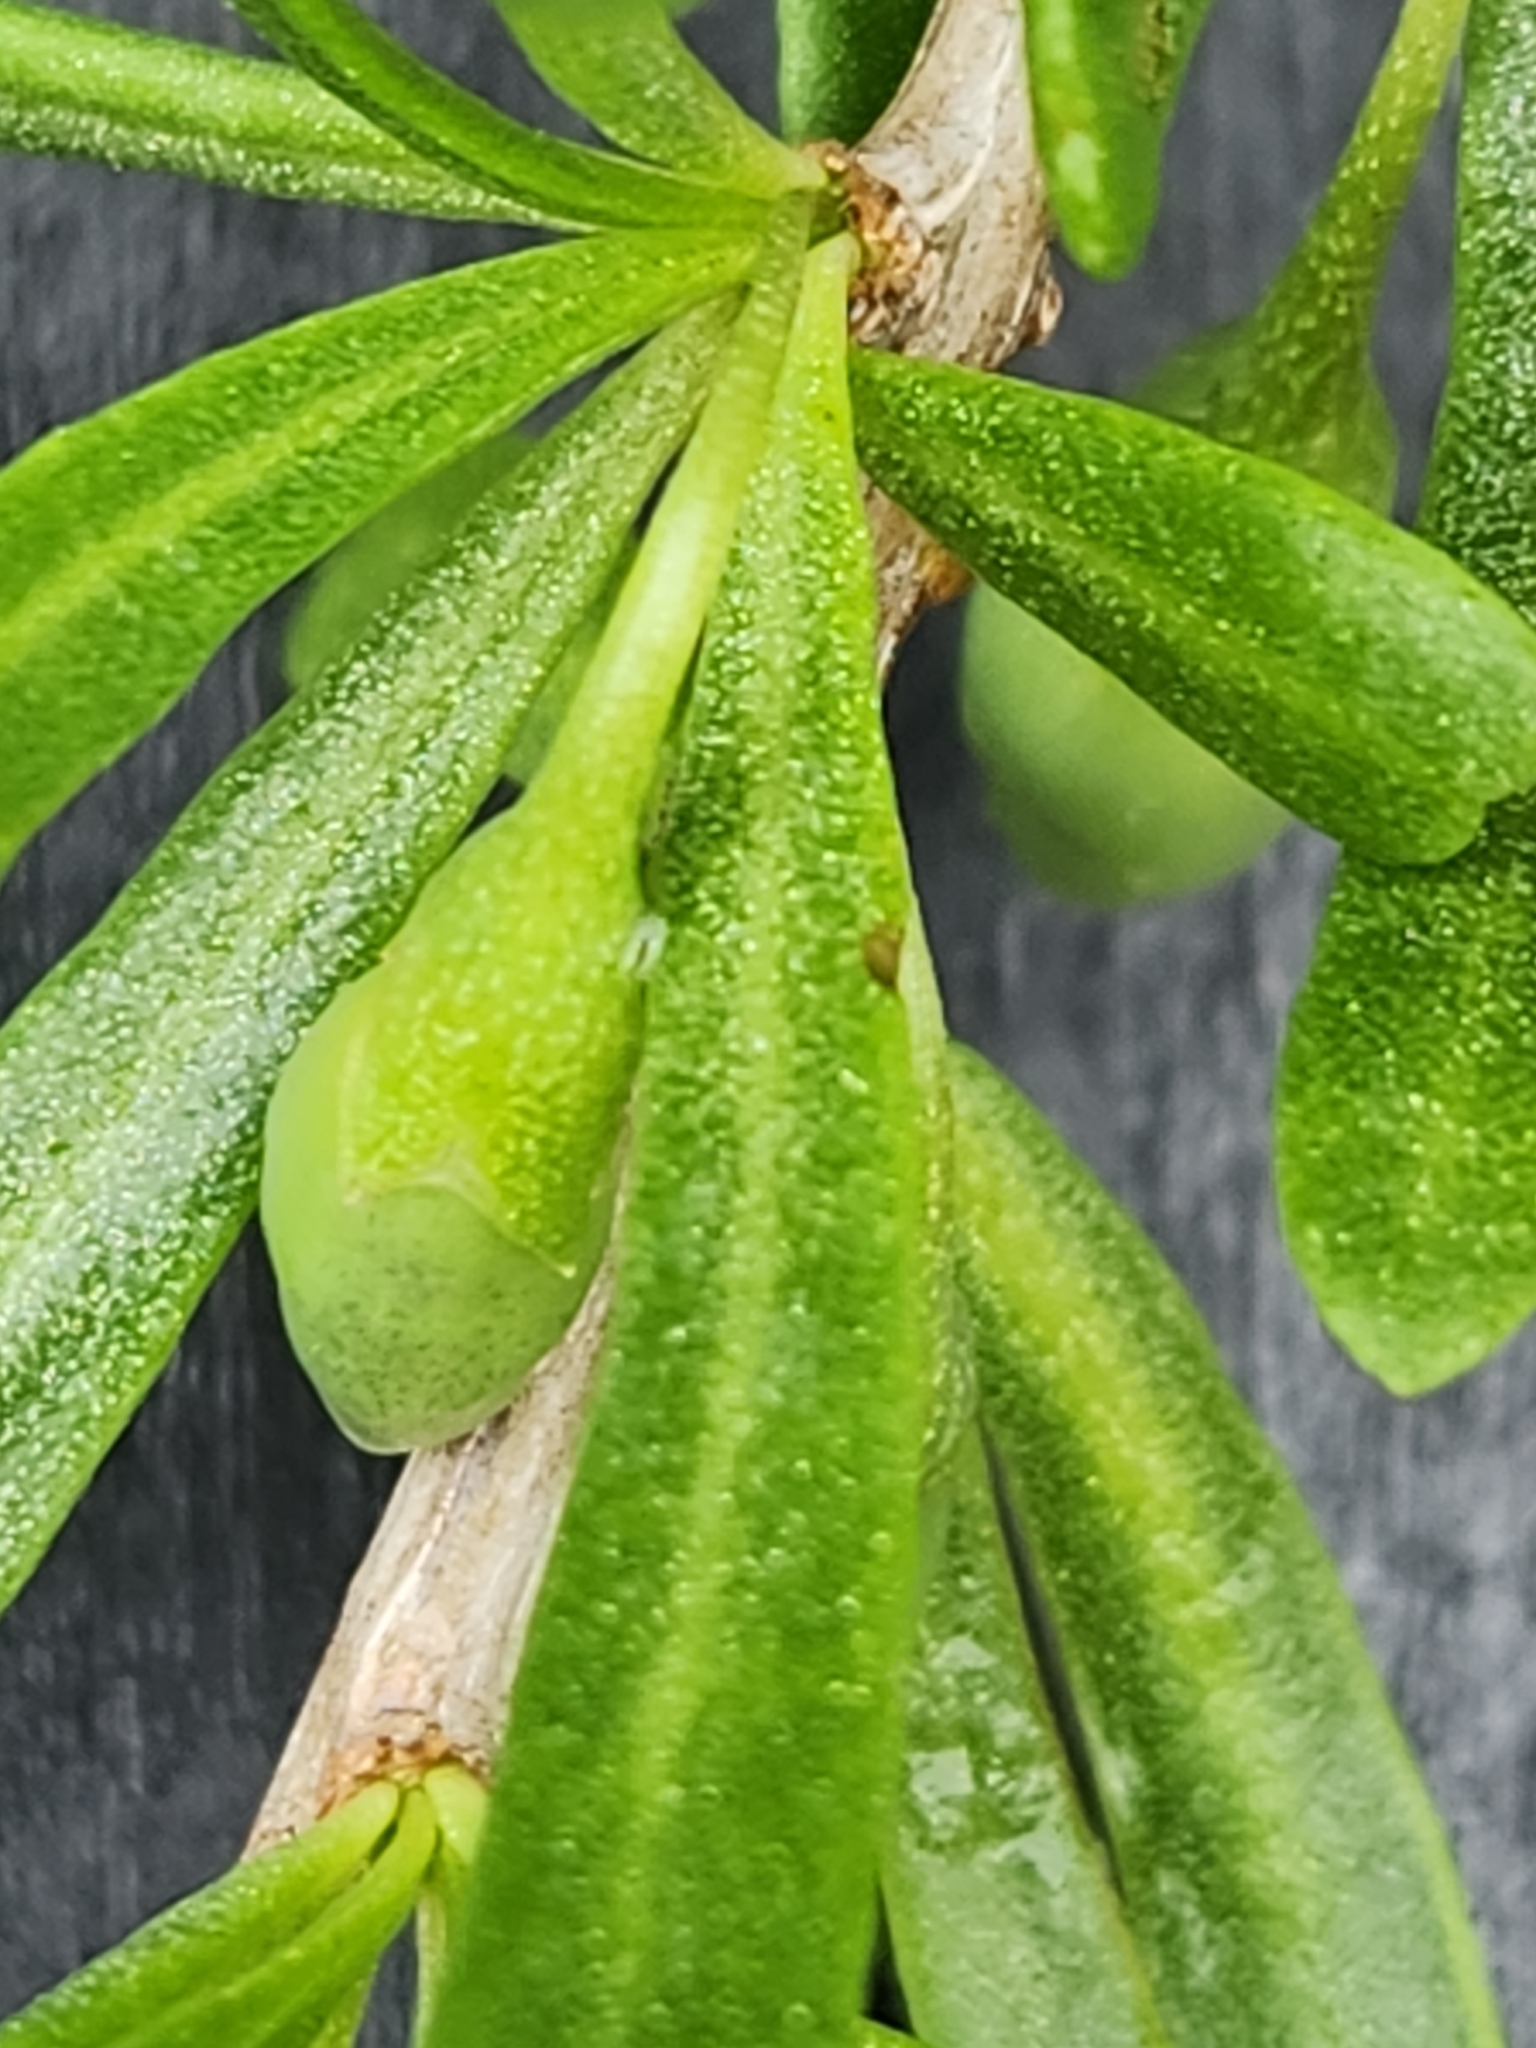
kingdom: Plantae
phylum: Tracheophyta
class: Magnoliopsida
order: Solanales
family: Solanaceae
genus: Lycium
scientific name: Lycium carolinianum
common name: Christmasberry
